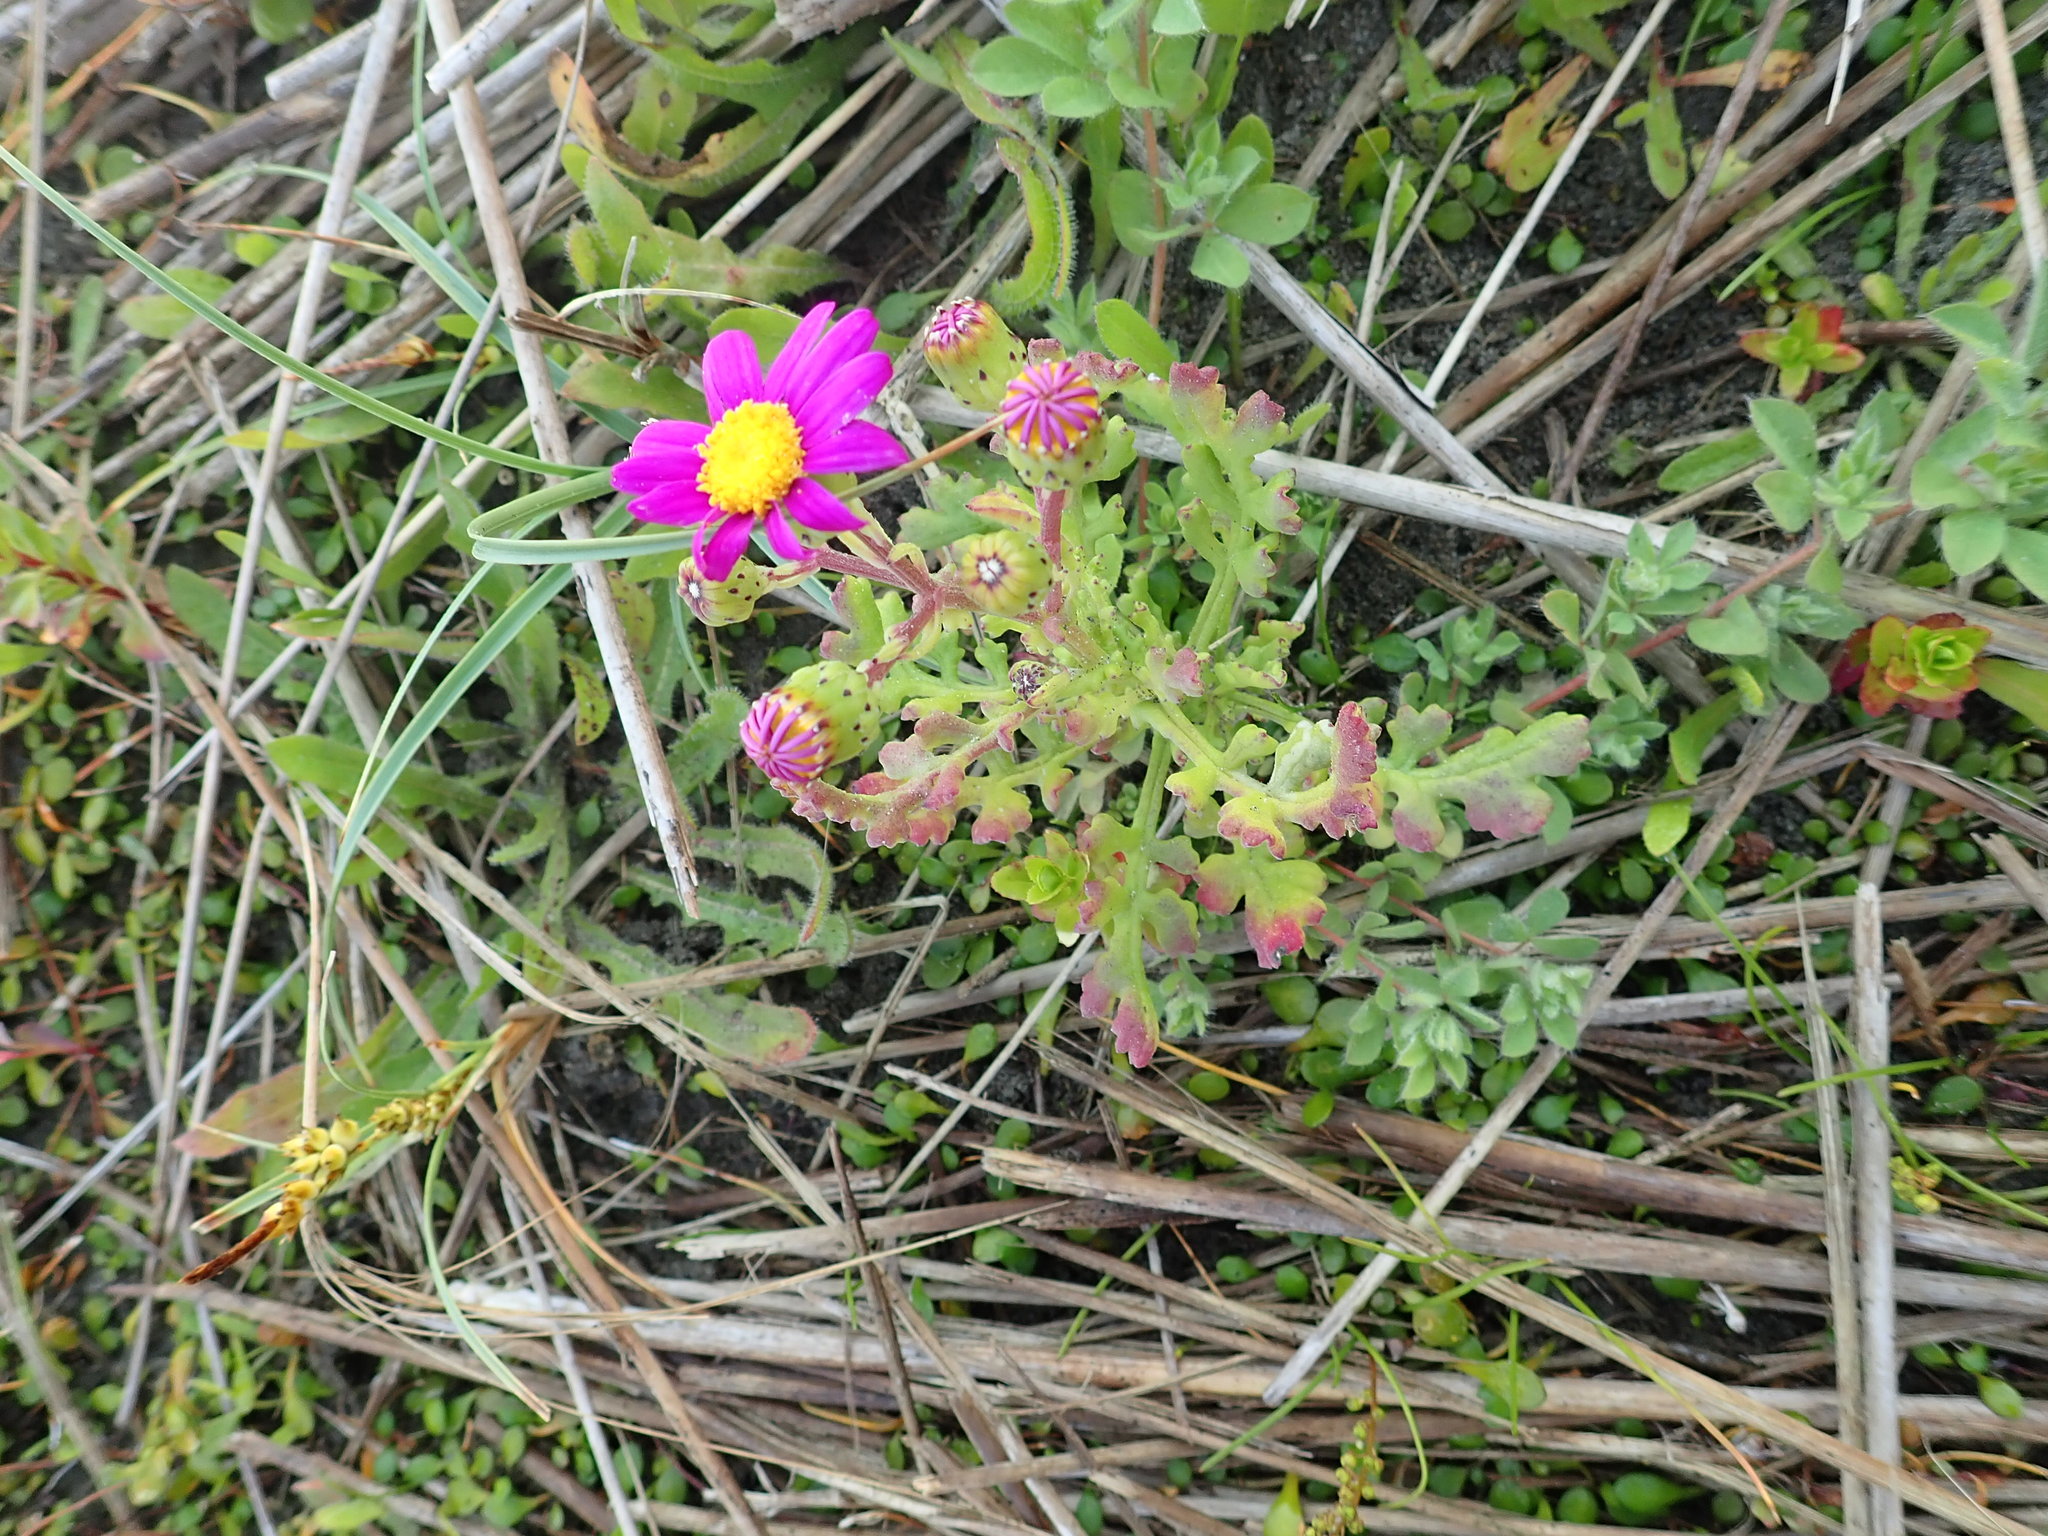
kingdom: Plantae
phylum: Tracheophyta
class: Magnoliopsida
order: Asterales
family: Asteraceae
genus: Senecio
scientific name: Senecio elegans
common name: Purple groundsel
